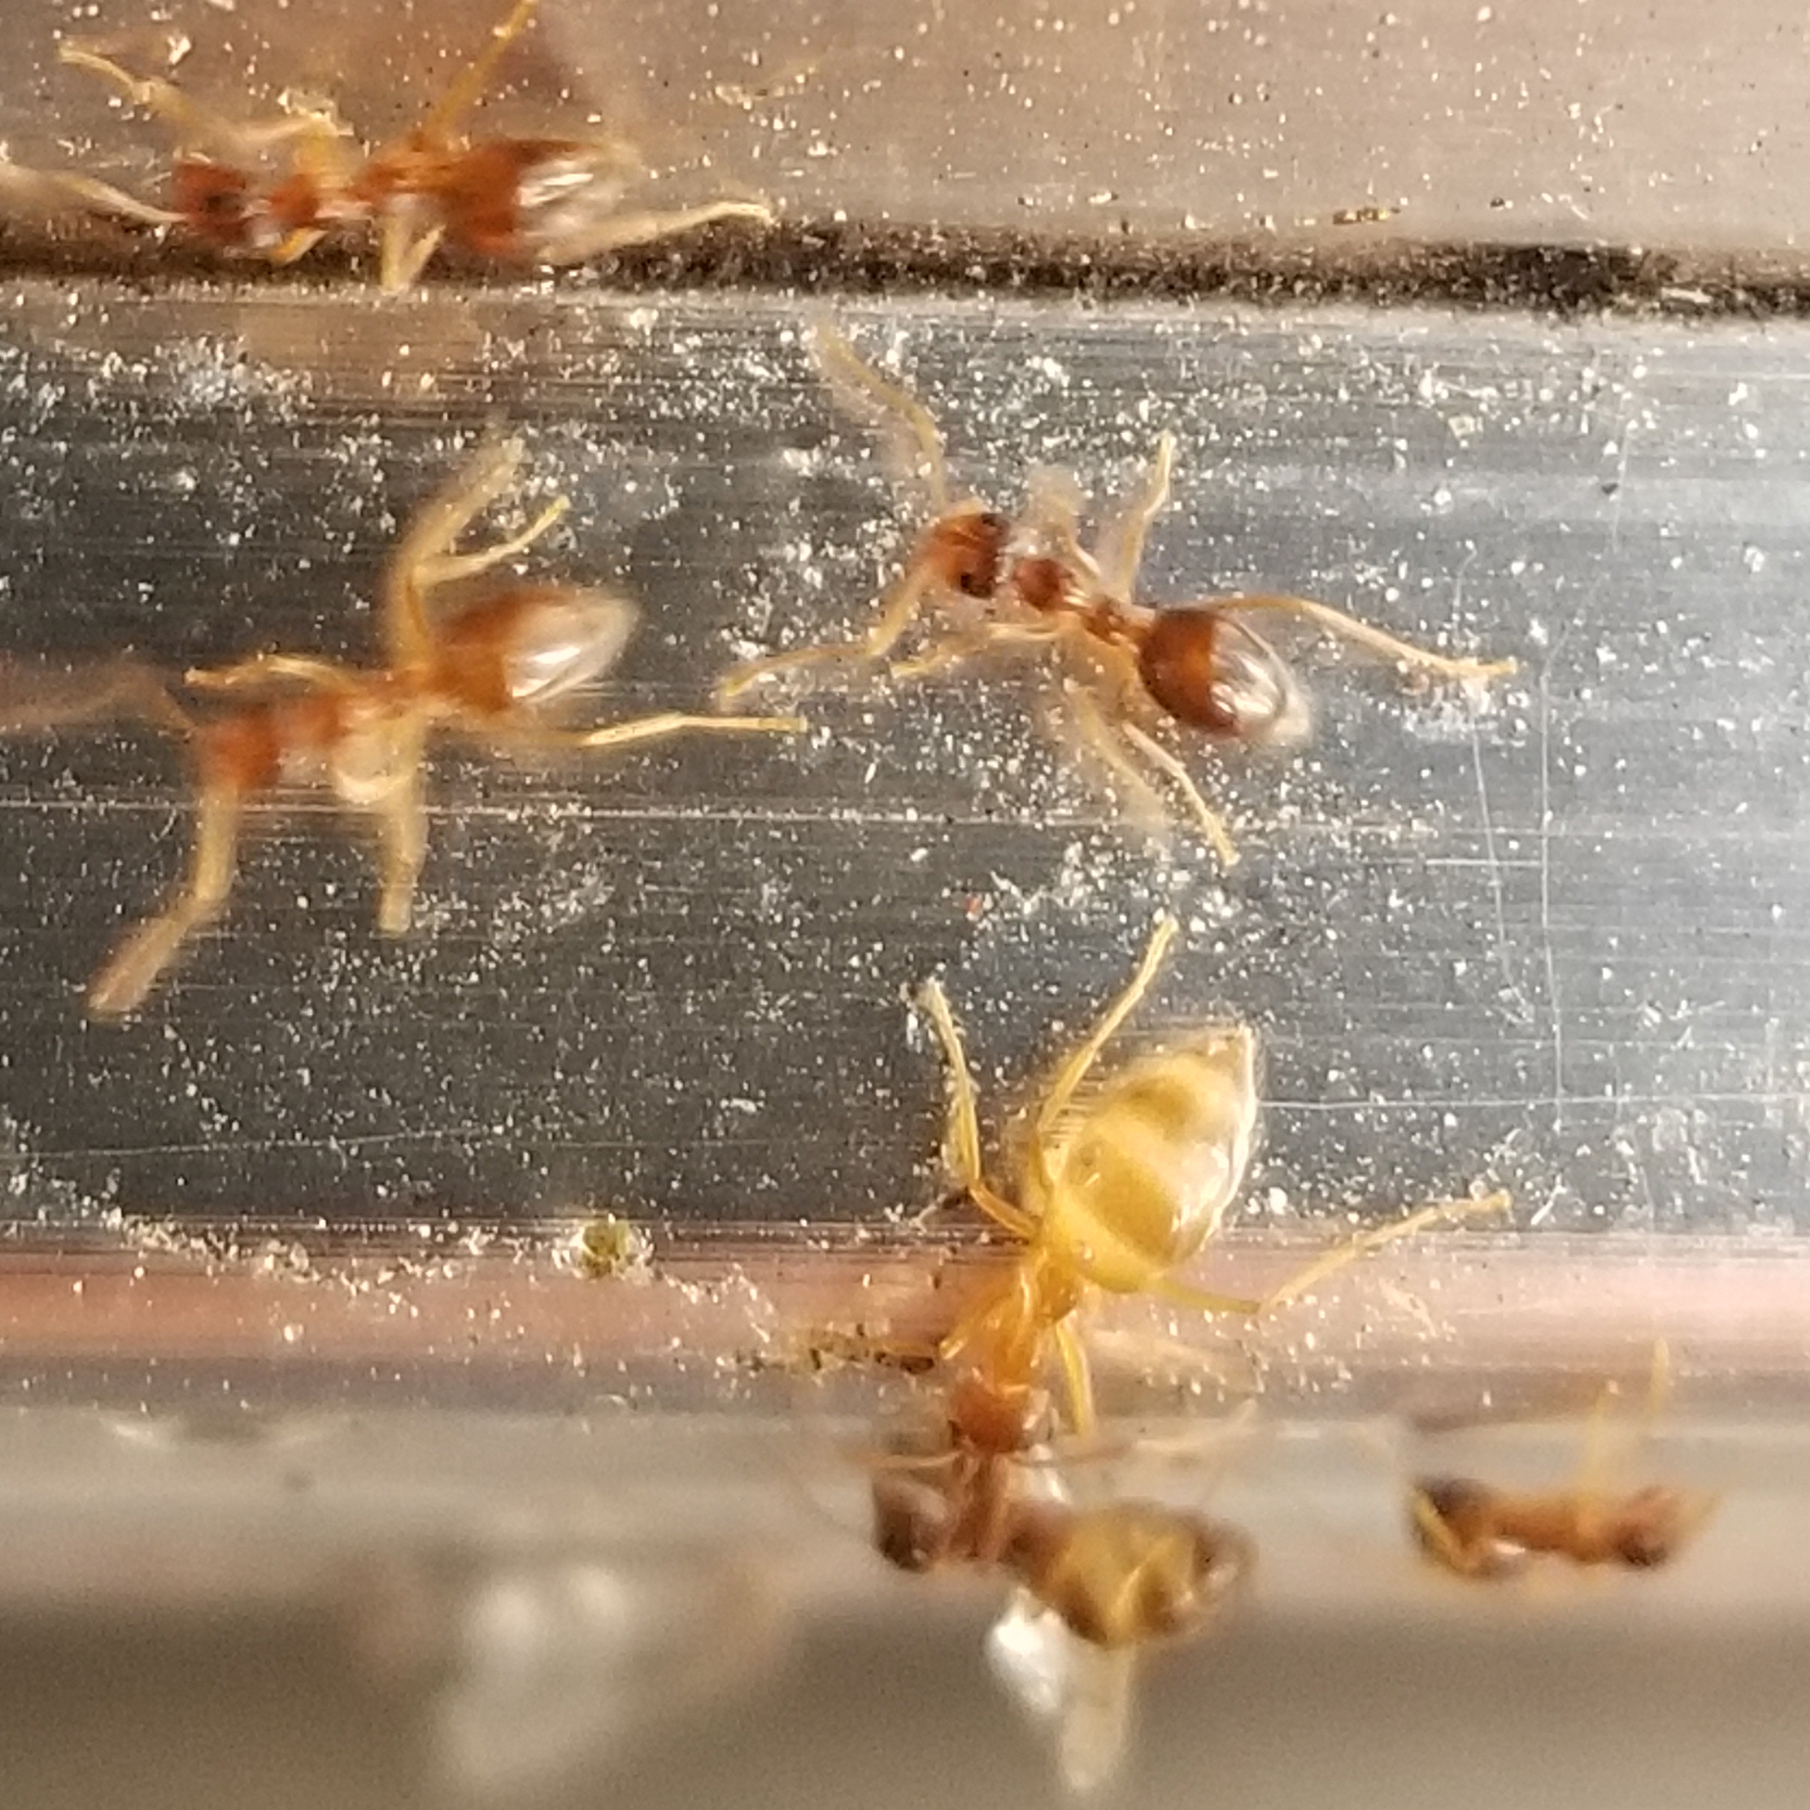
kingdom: Animalia
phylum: Arthropoda
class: Insecta
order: Hymenoptera
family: Formicidae
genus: Prenolepis
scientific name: Prenolepis imparis
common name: Small honey ant
